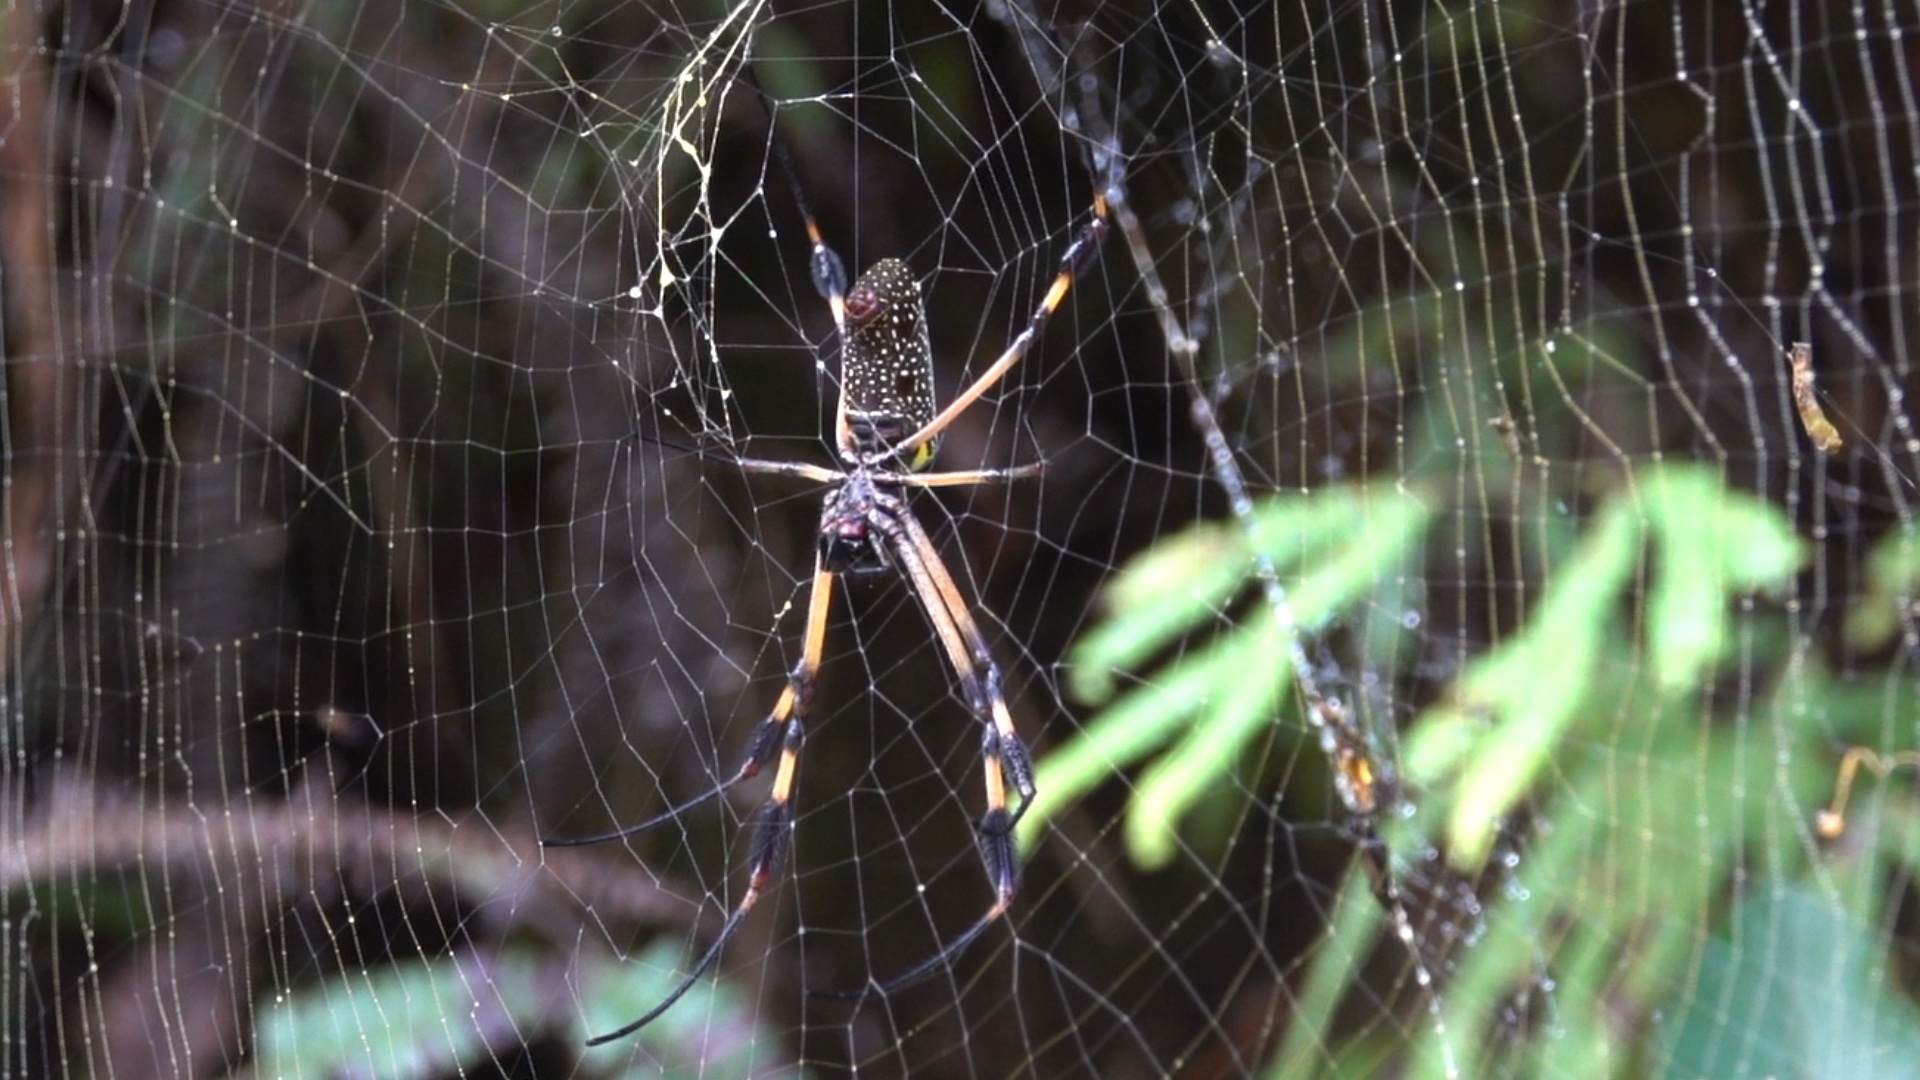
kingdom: Animalia
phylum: Arthropoda
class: Arachnida
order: Araneae
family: Araneidae
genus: Trichonephila
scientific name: Trichonephila clavipes
